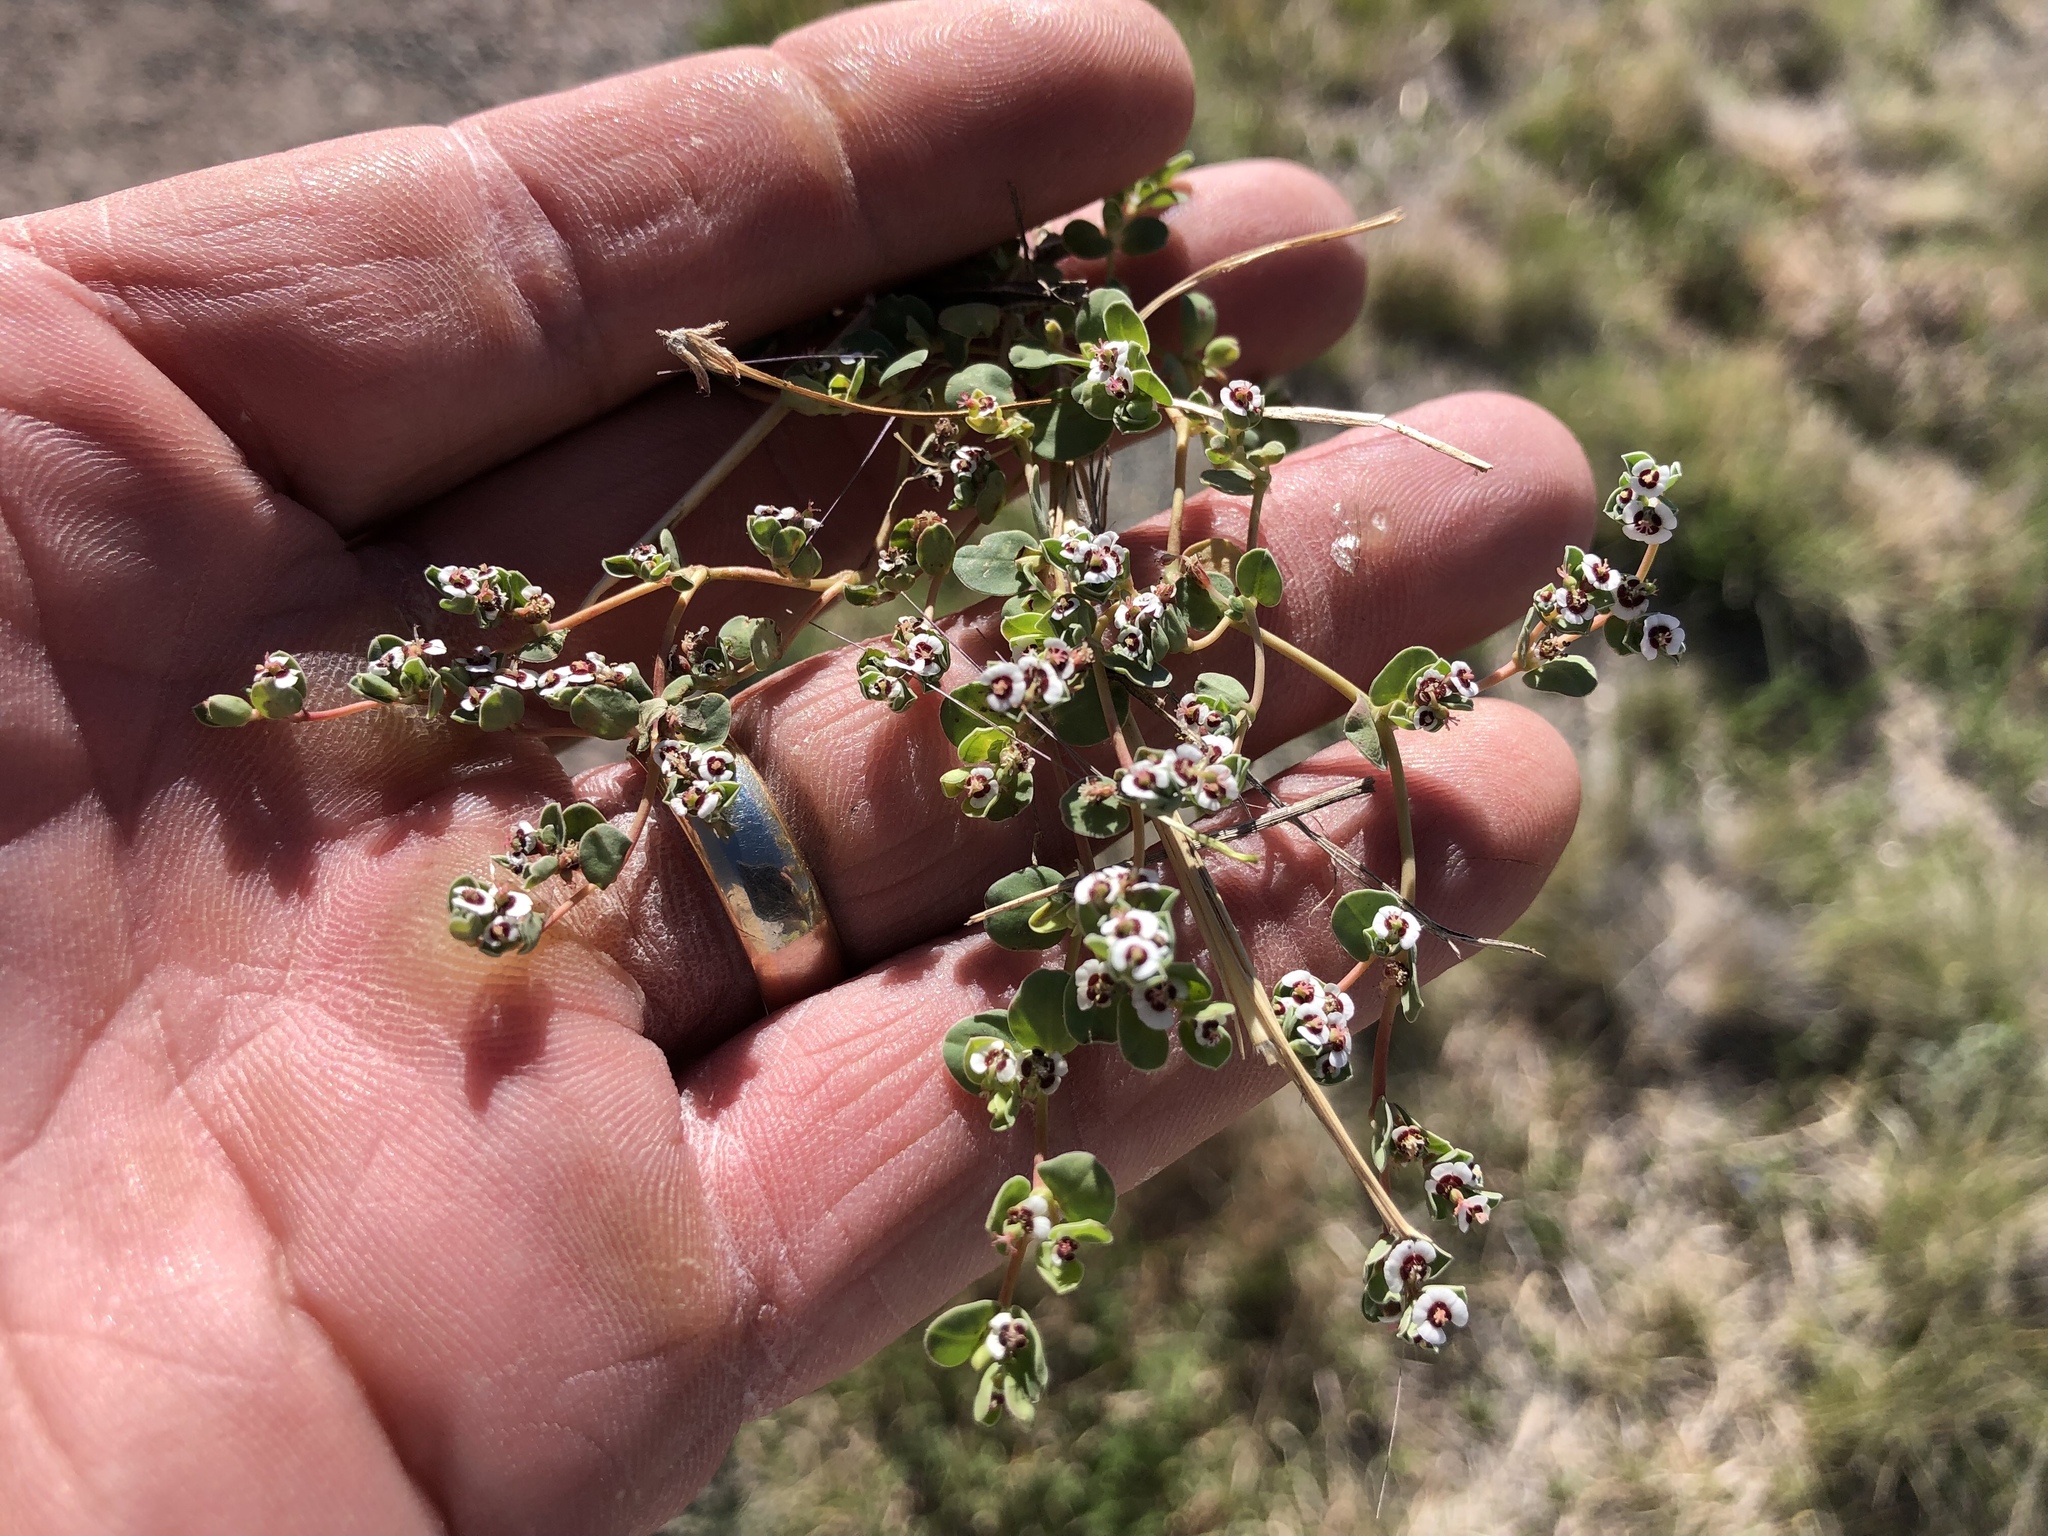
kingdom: Plantae
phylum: Tracheophyta
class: Magnoliopsida
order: Malpighiales
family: Euphorbiaceae
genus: Euphorbia
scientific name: Euphorbia albomarginata
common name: Whitemargin sandmat
